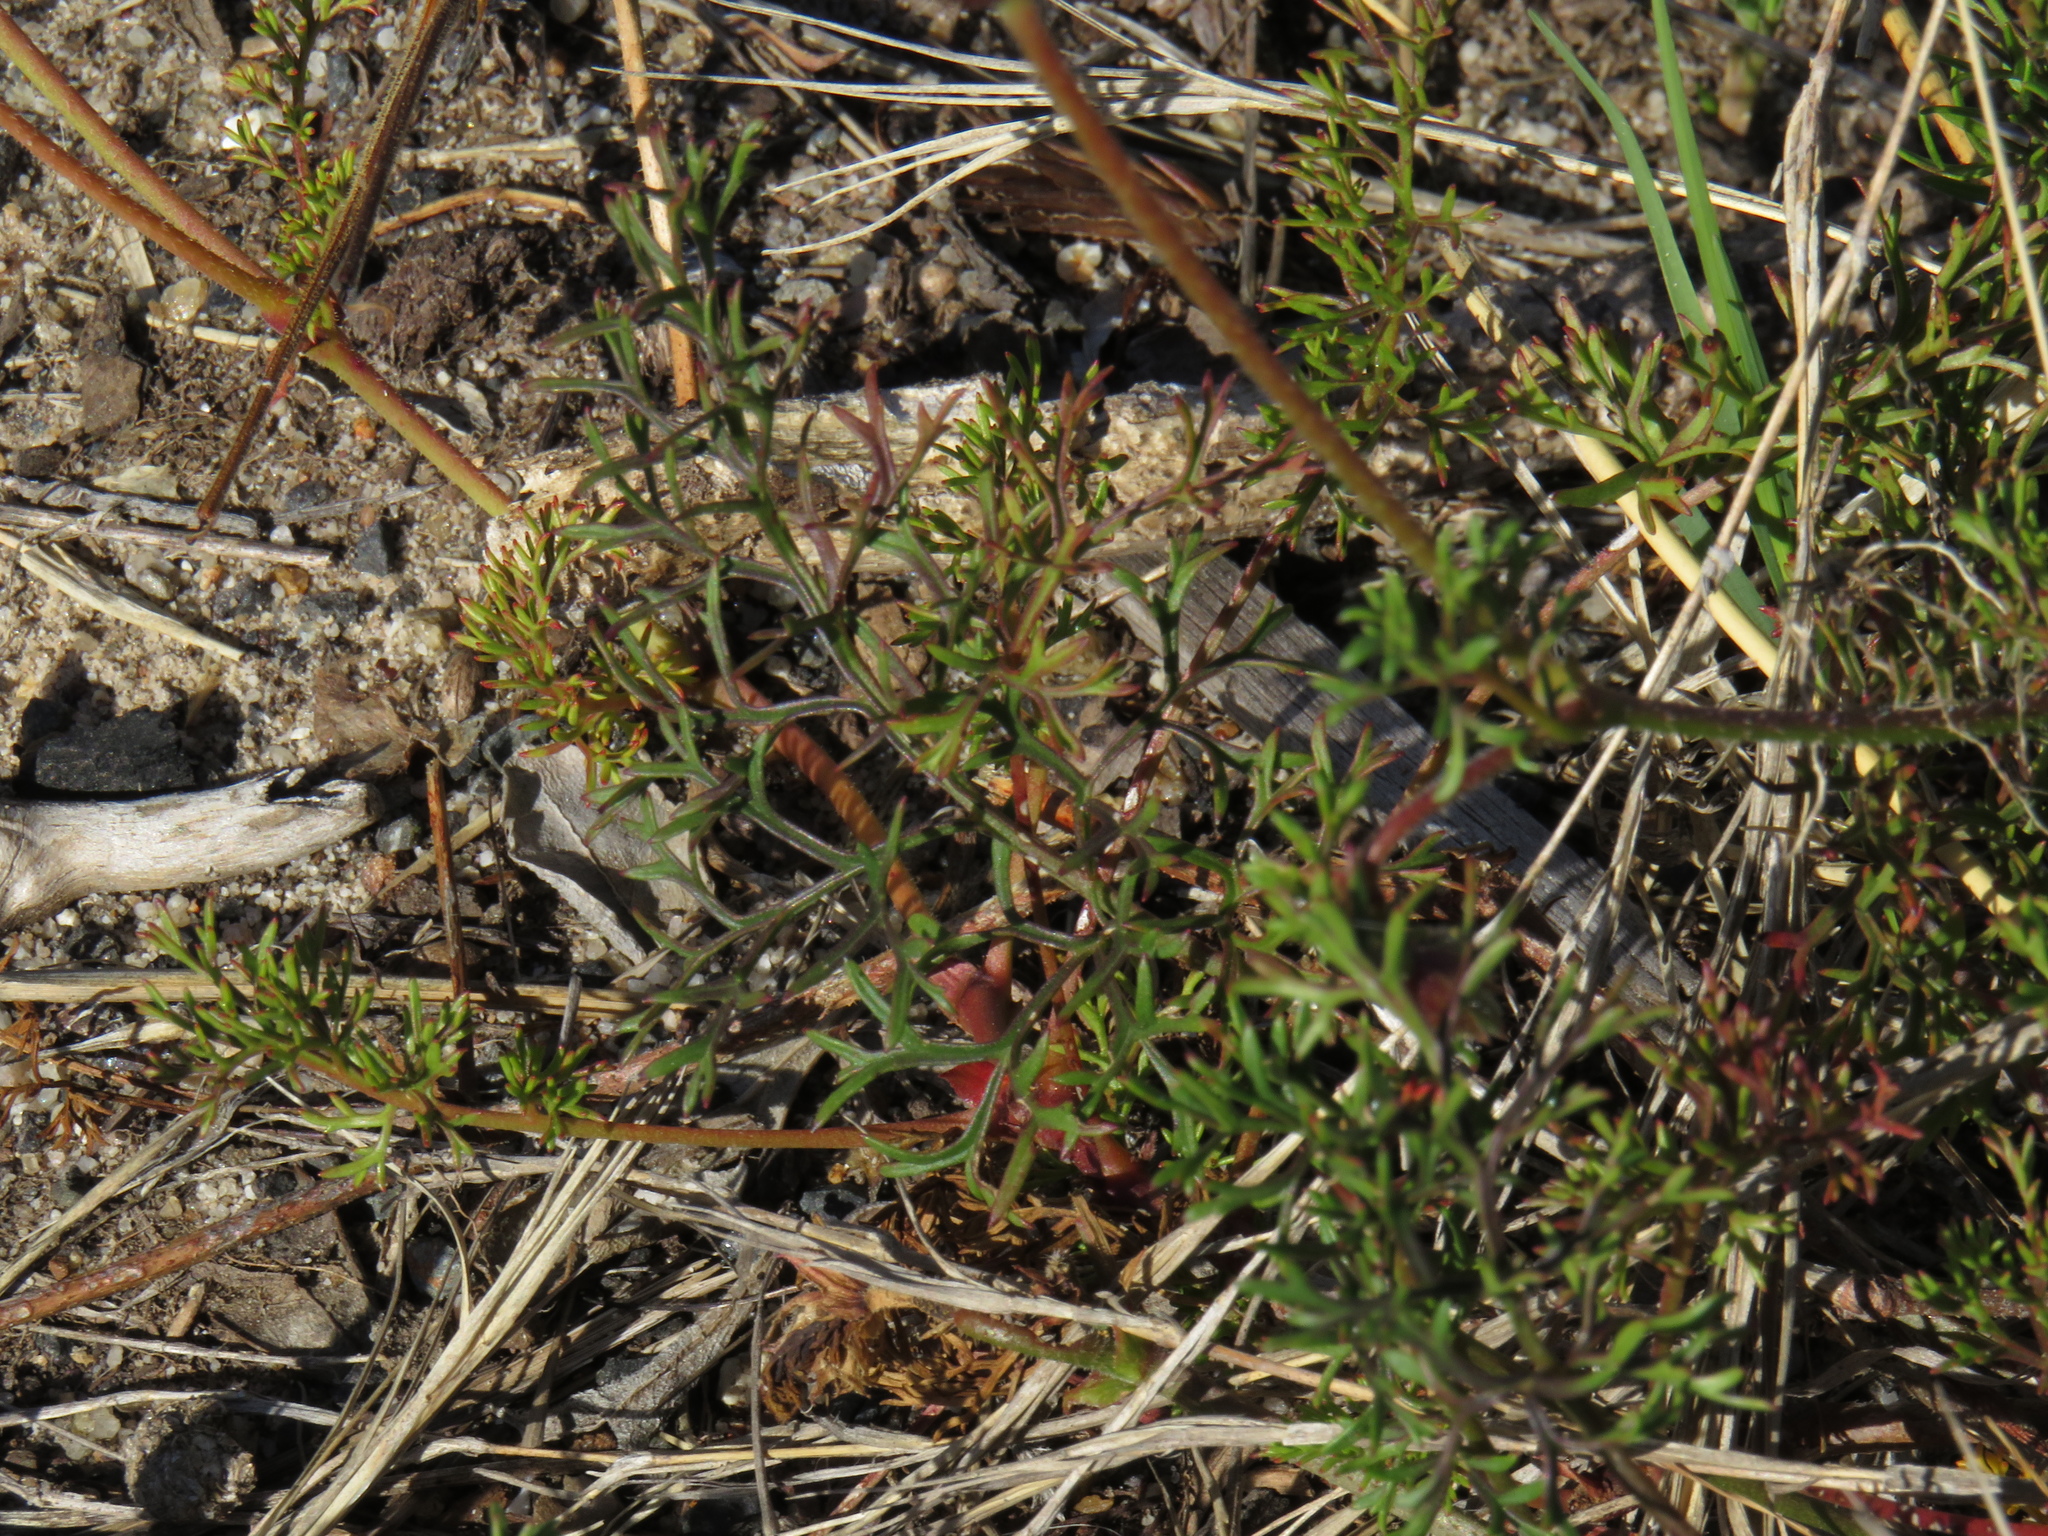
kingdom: Plantae
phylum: Tracheophyta
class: Magnoliopsida
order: Geraniales
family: Geraniaceae
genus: Pelargonium
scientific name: Pelargonium myrrhifolium
